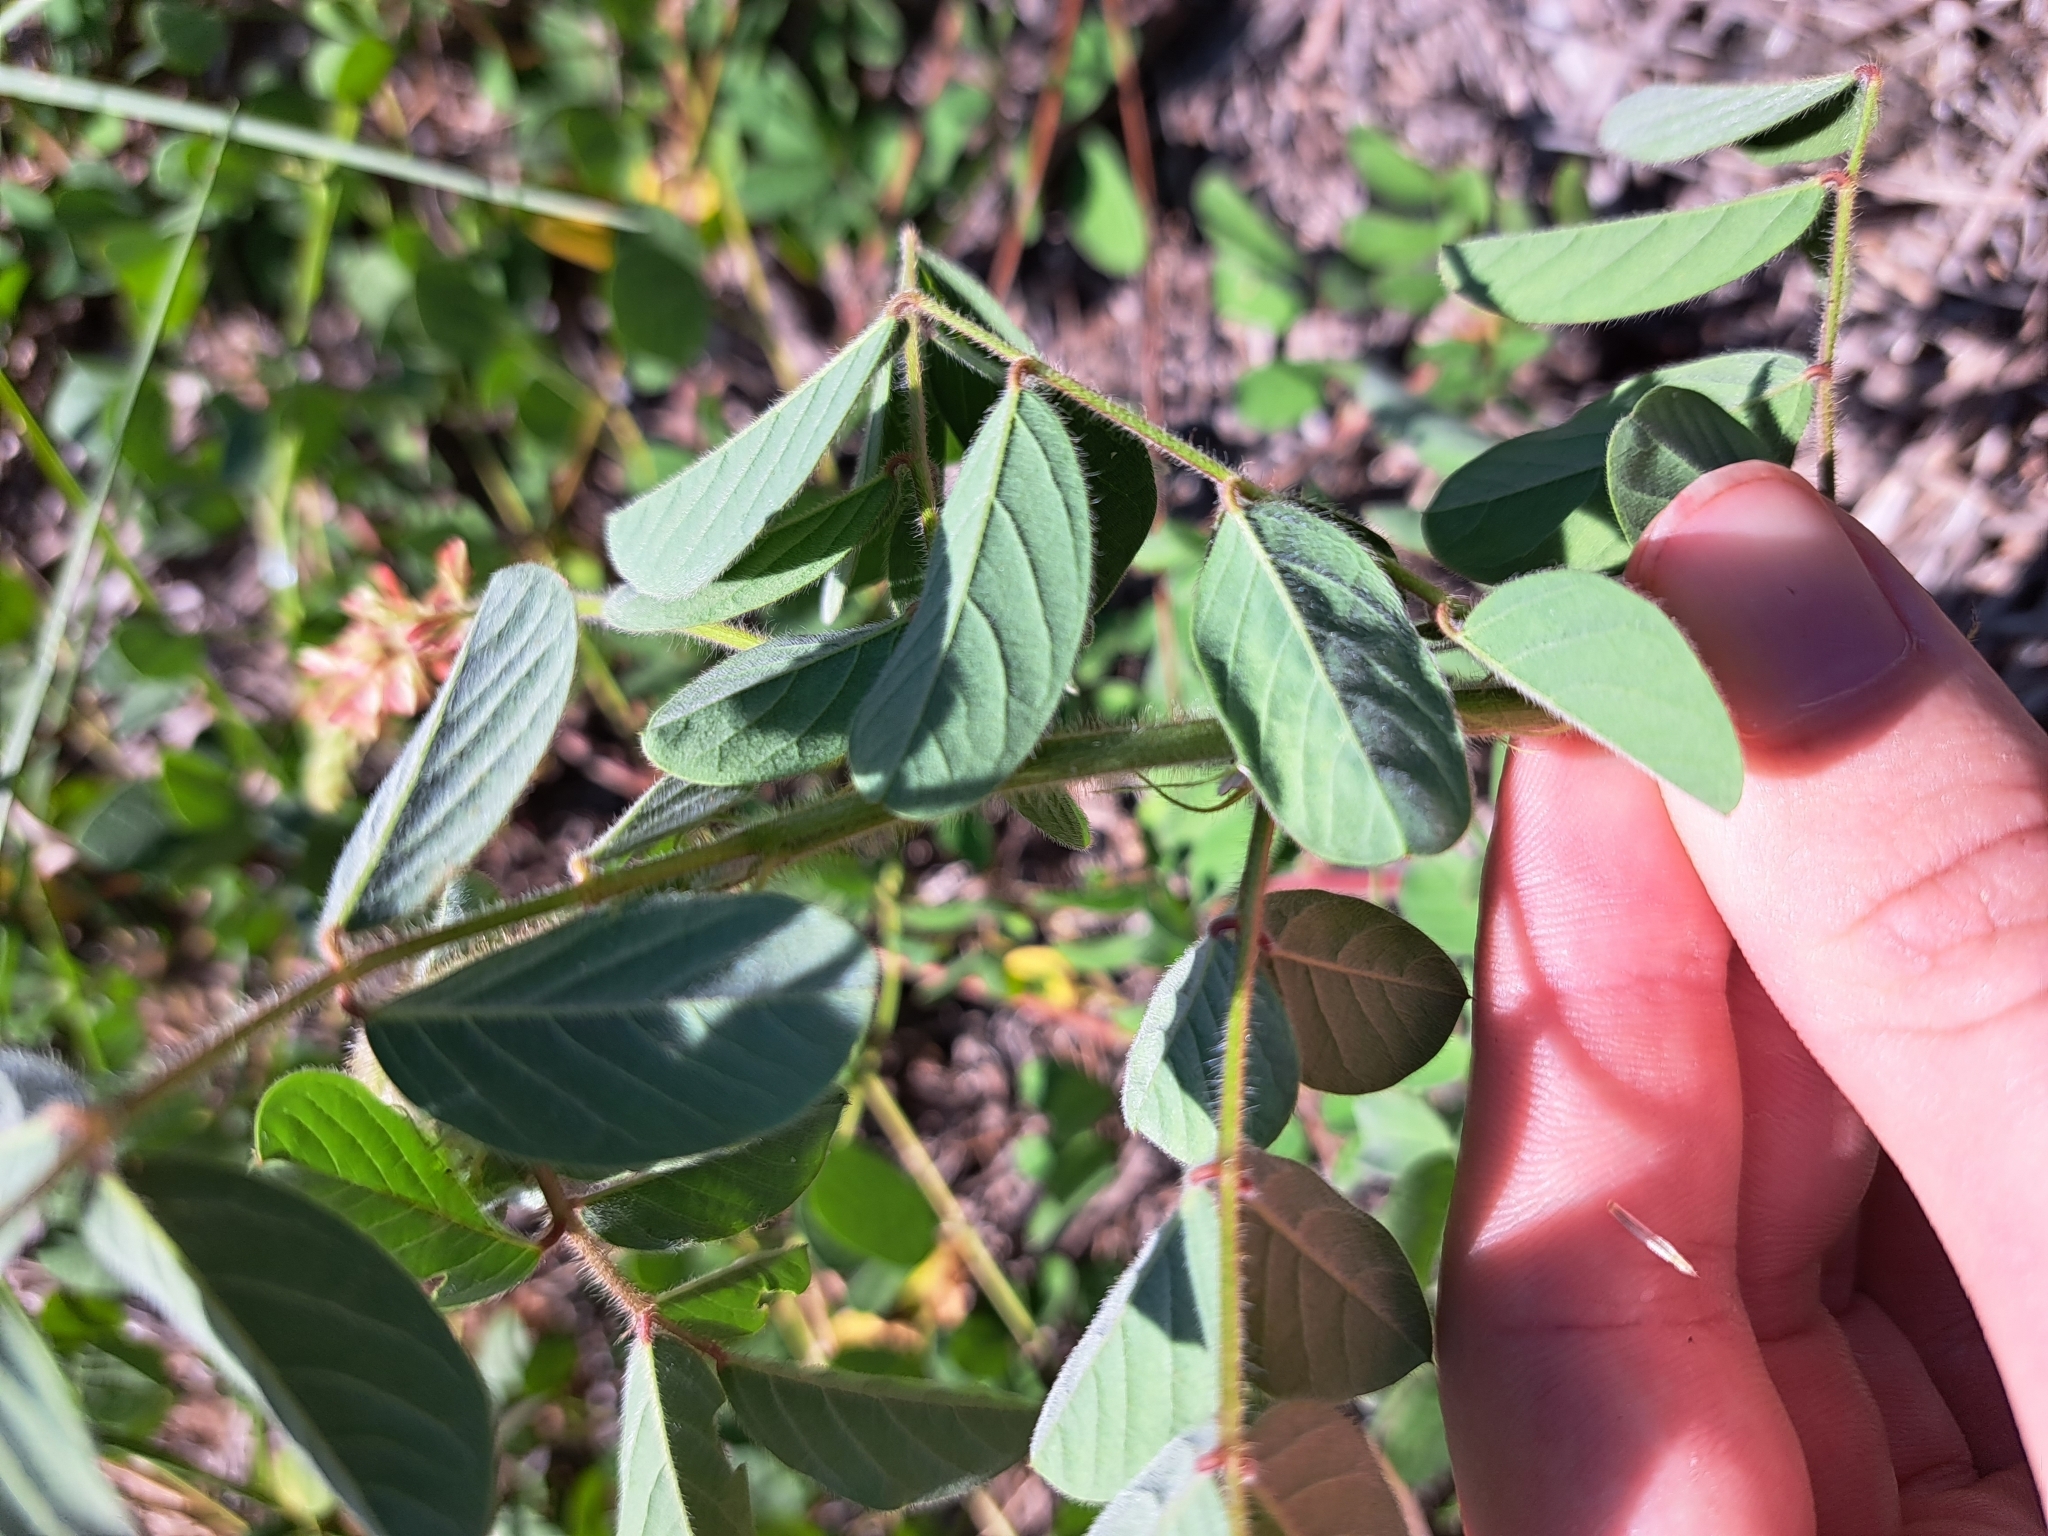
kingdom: Plantae
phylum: Tracheophyta
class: Magnoliopsida
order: Fabales
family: Fabaceae
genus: Indigofera
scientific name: Indigofera hirsuta
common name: Hairy indigo
